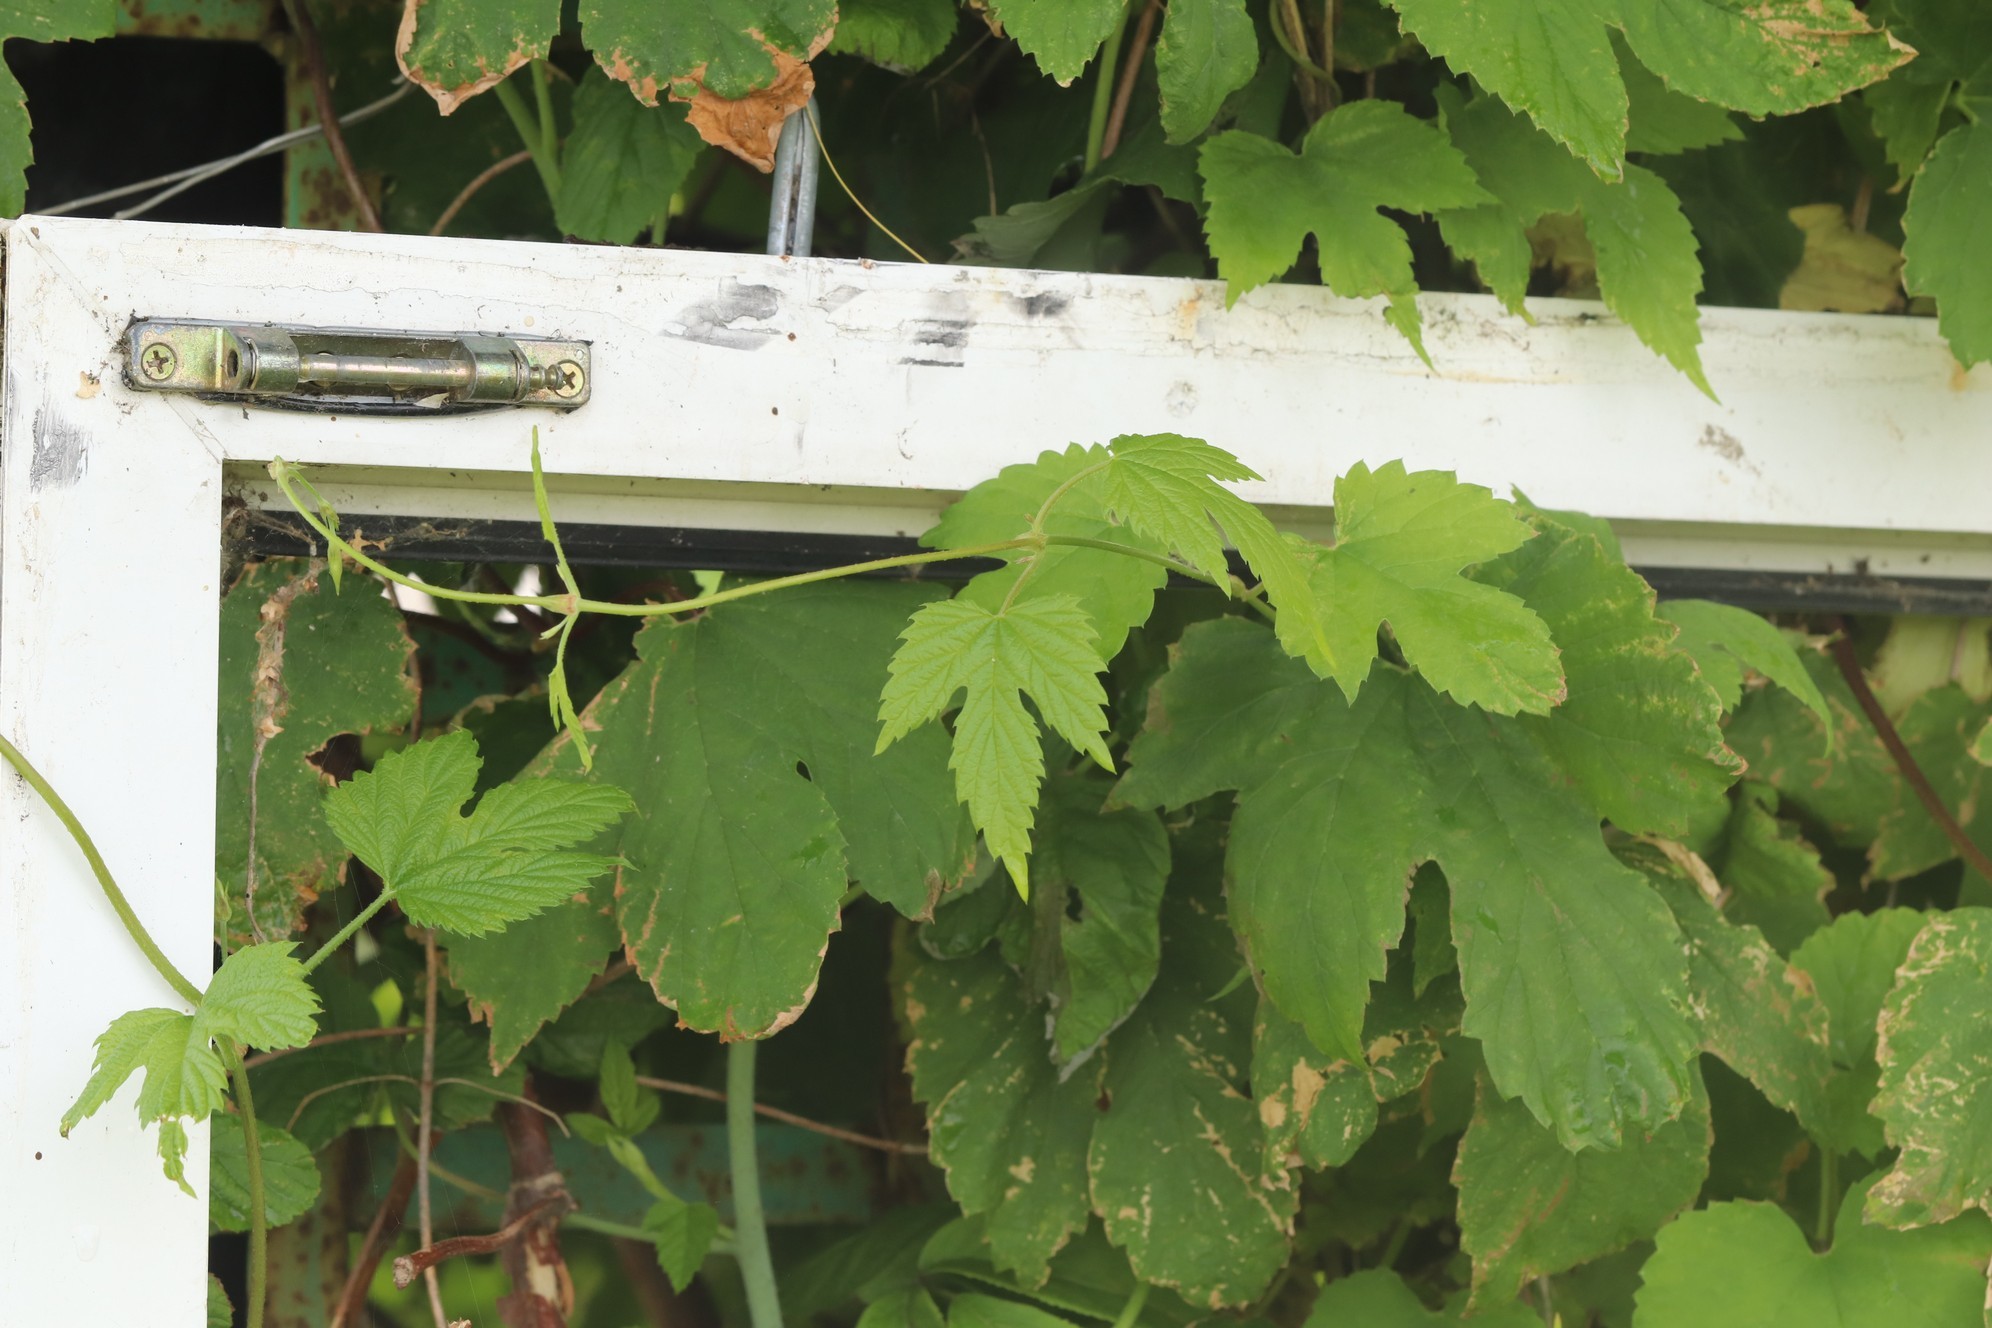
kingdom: Plantae
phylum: Tracheophyta
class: Magnoliopsida
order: Rosales
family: Cannabaceae
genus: Humulus
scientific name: Humulus lupulus
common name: Hop
